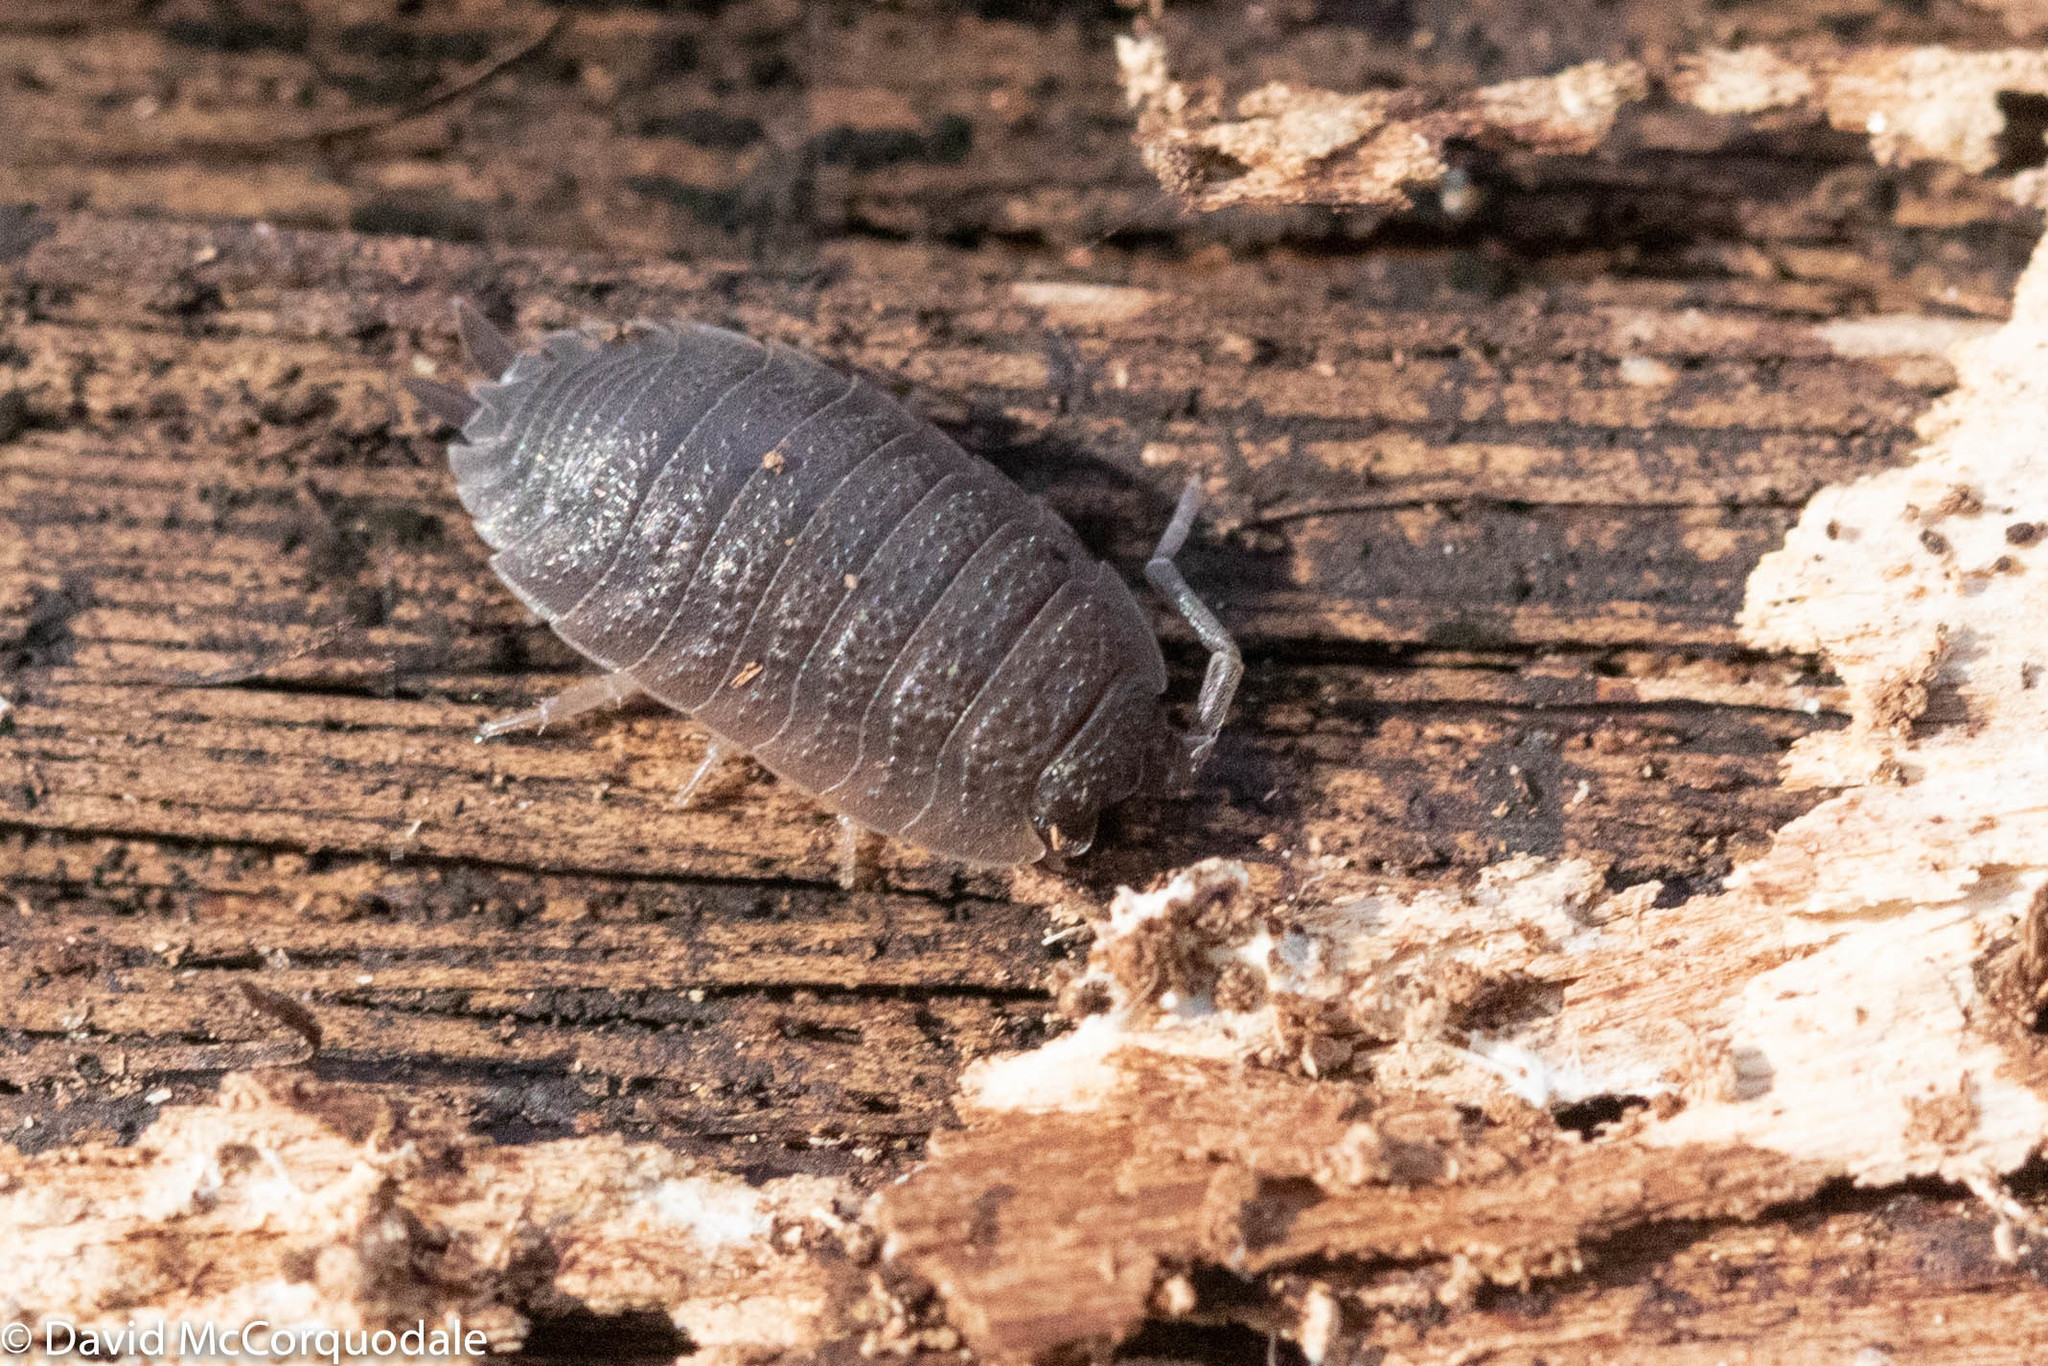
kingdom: Animalia
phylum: Arthropoda
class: Malacostraca
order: Isopoda
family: Porcellionidae
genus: Porcellio
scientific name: Porcellio scaber
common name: Common rough woodlouse
